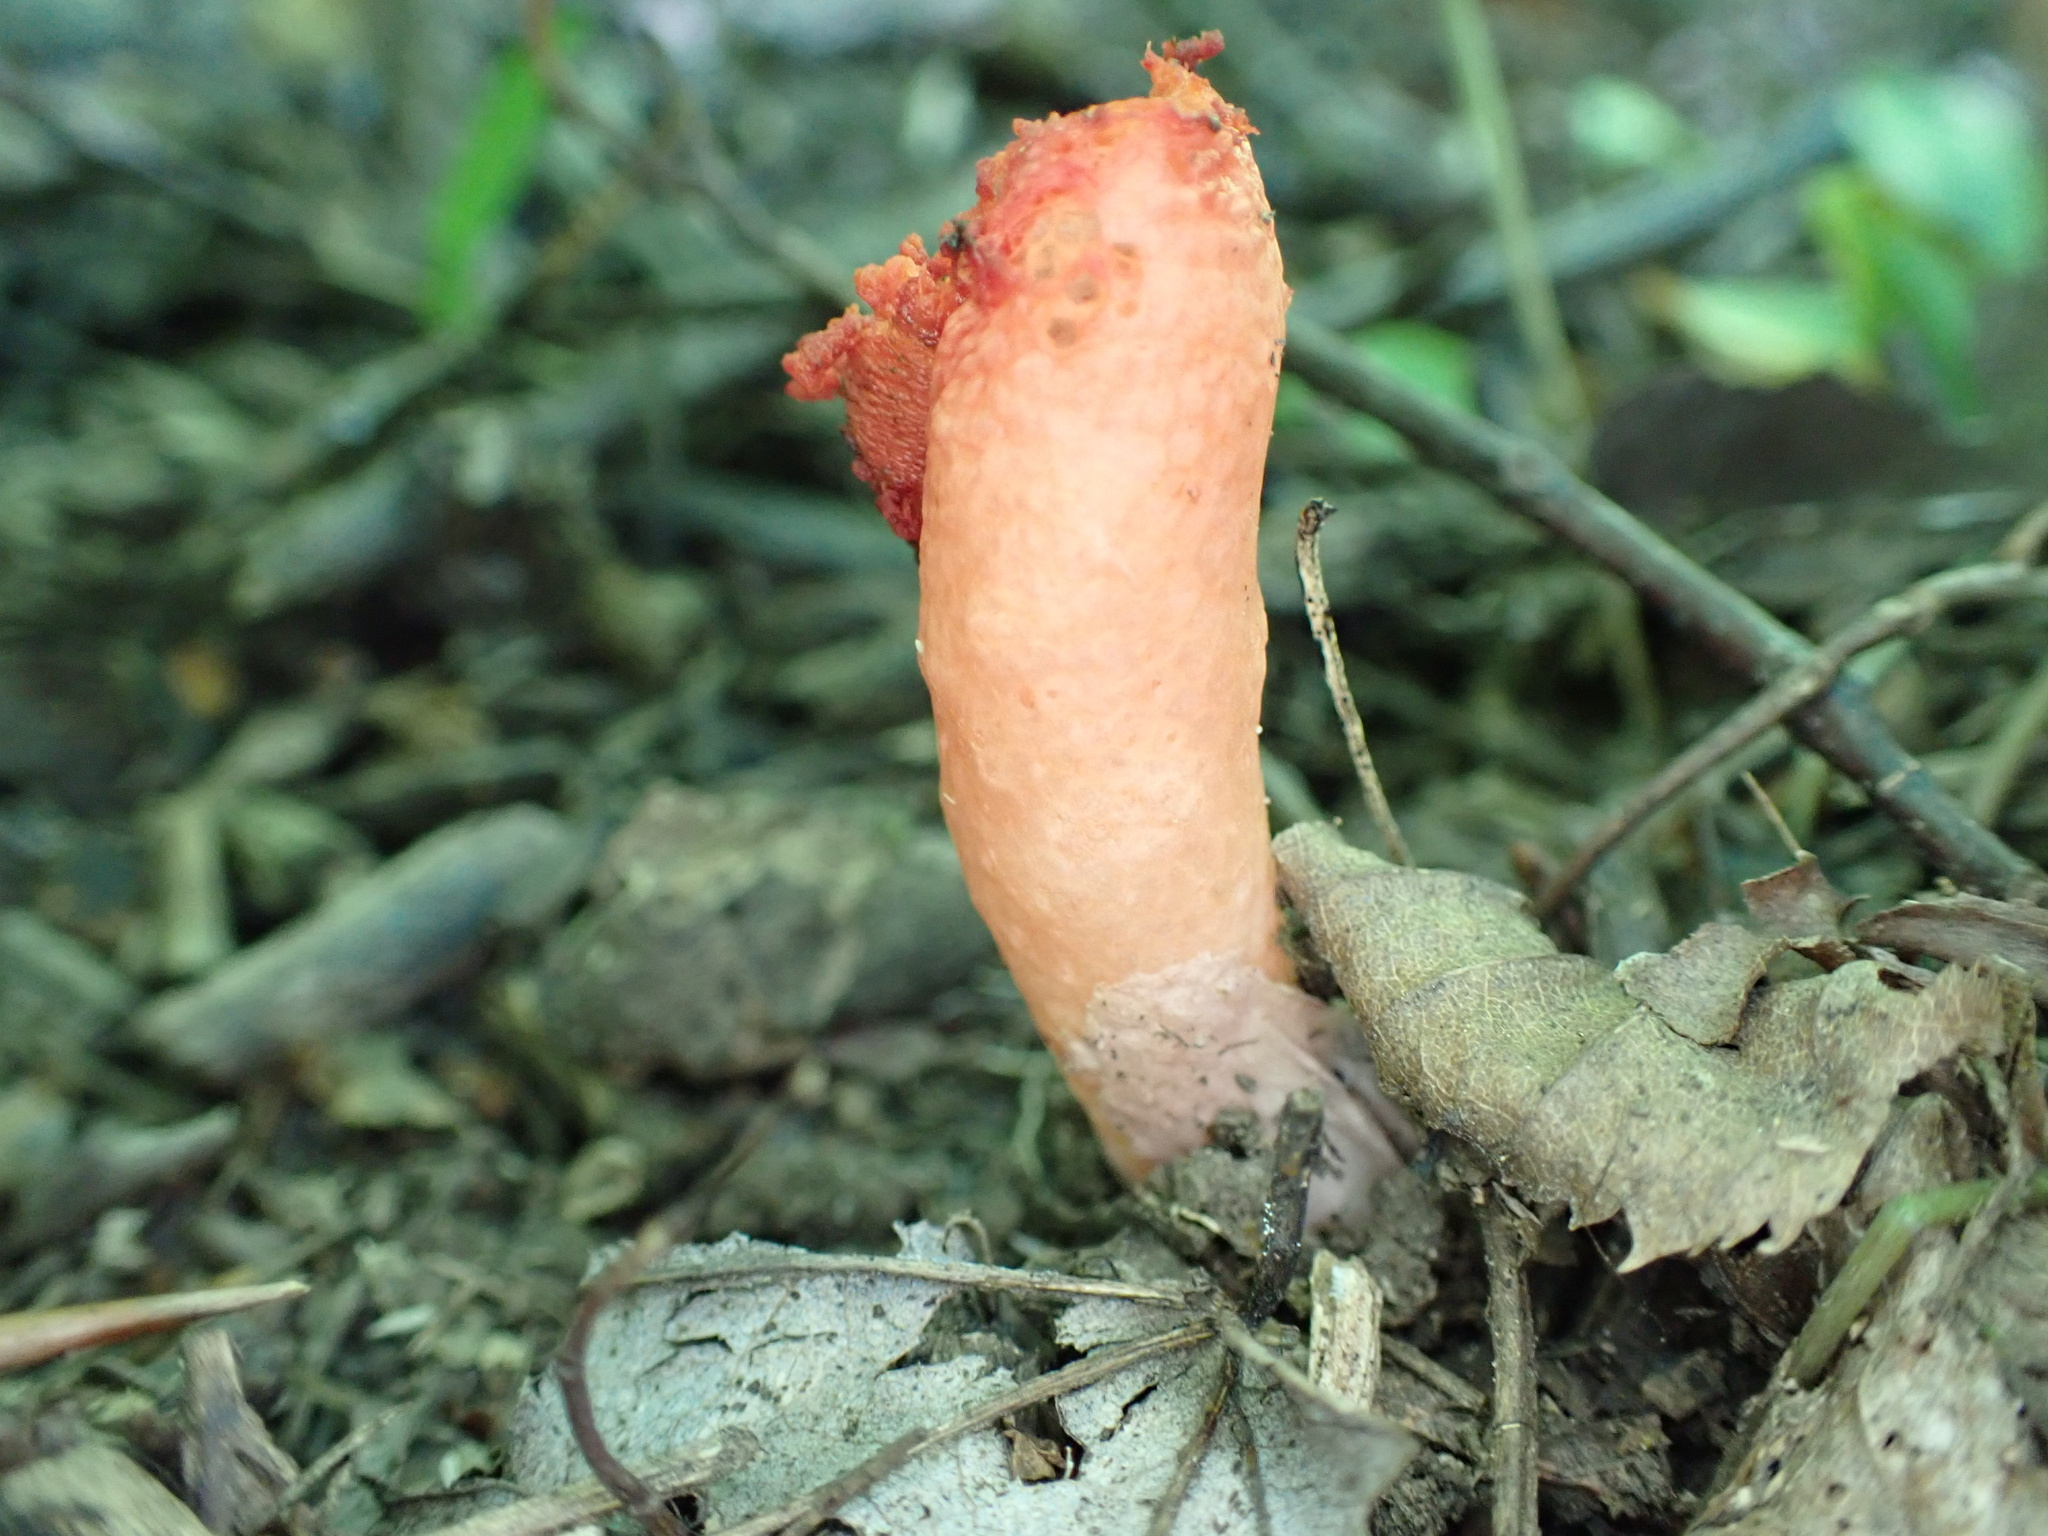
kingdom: Fungi
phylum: Basidiomycota
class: Agaricomycetes
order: Phallales
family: Phallaceae
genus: Mutinus
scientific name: Mutinus elegans
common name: Devil's dipstick
